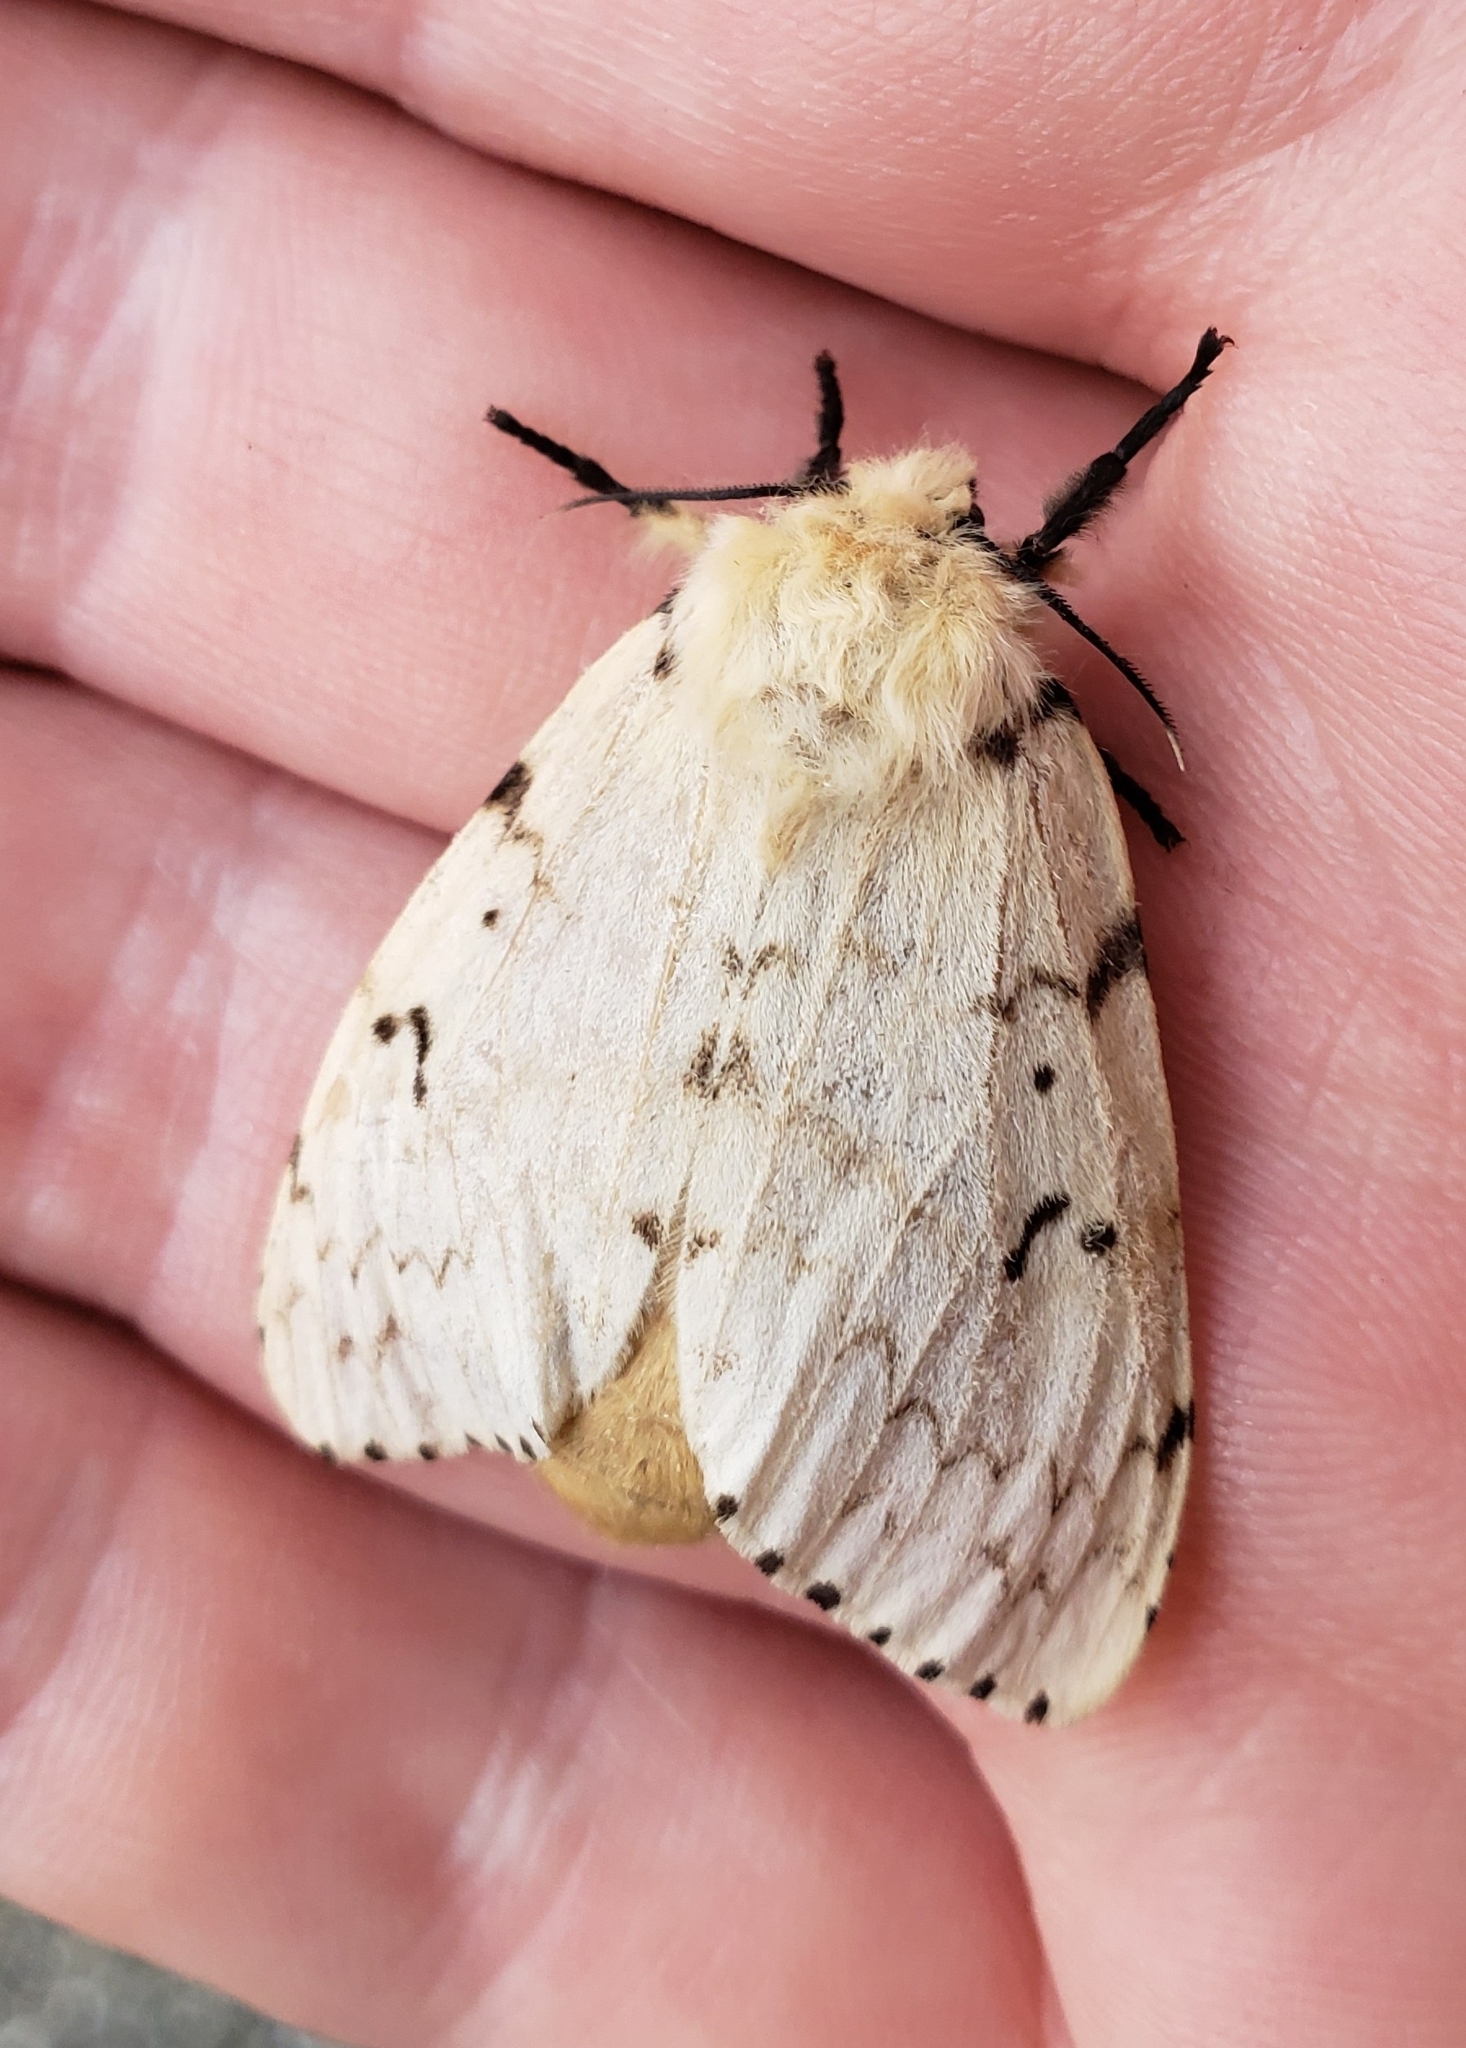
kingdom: Animalia
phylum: Arthropoda
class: Insecta
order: Lepidoptera
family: Erebidae
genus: Lymantria
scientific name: Lymantria dispar
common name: Gypsy moth
